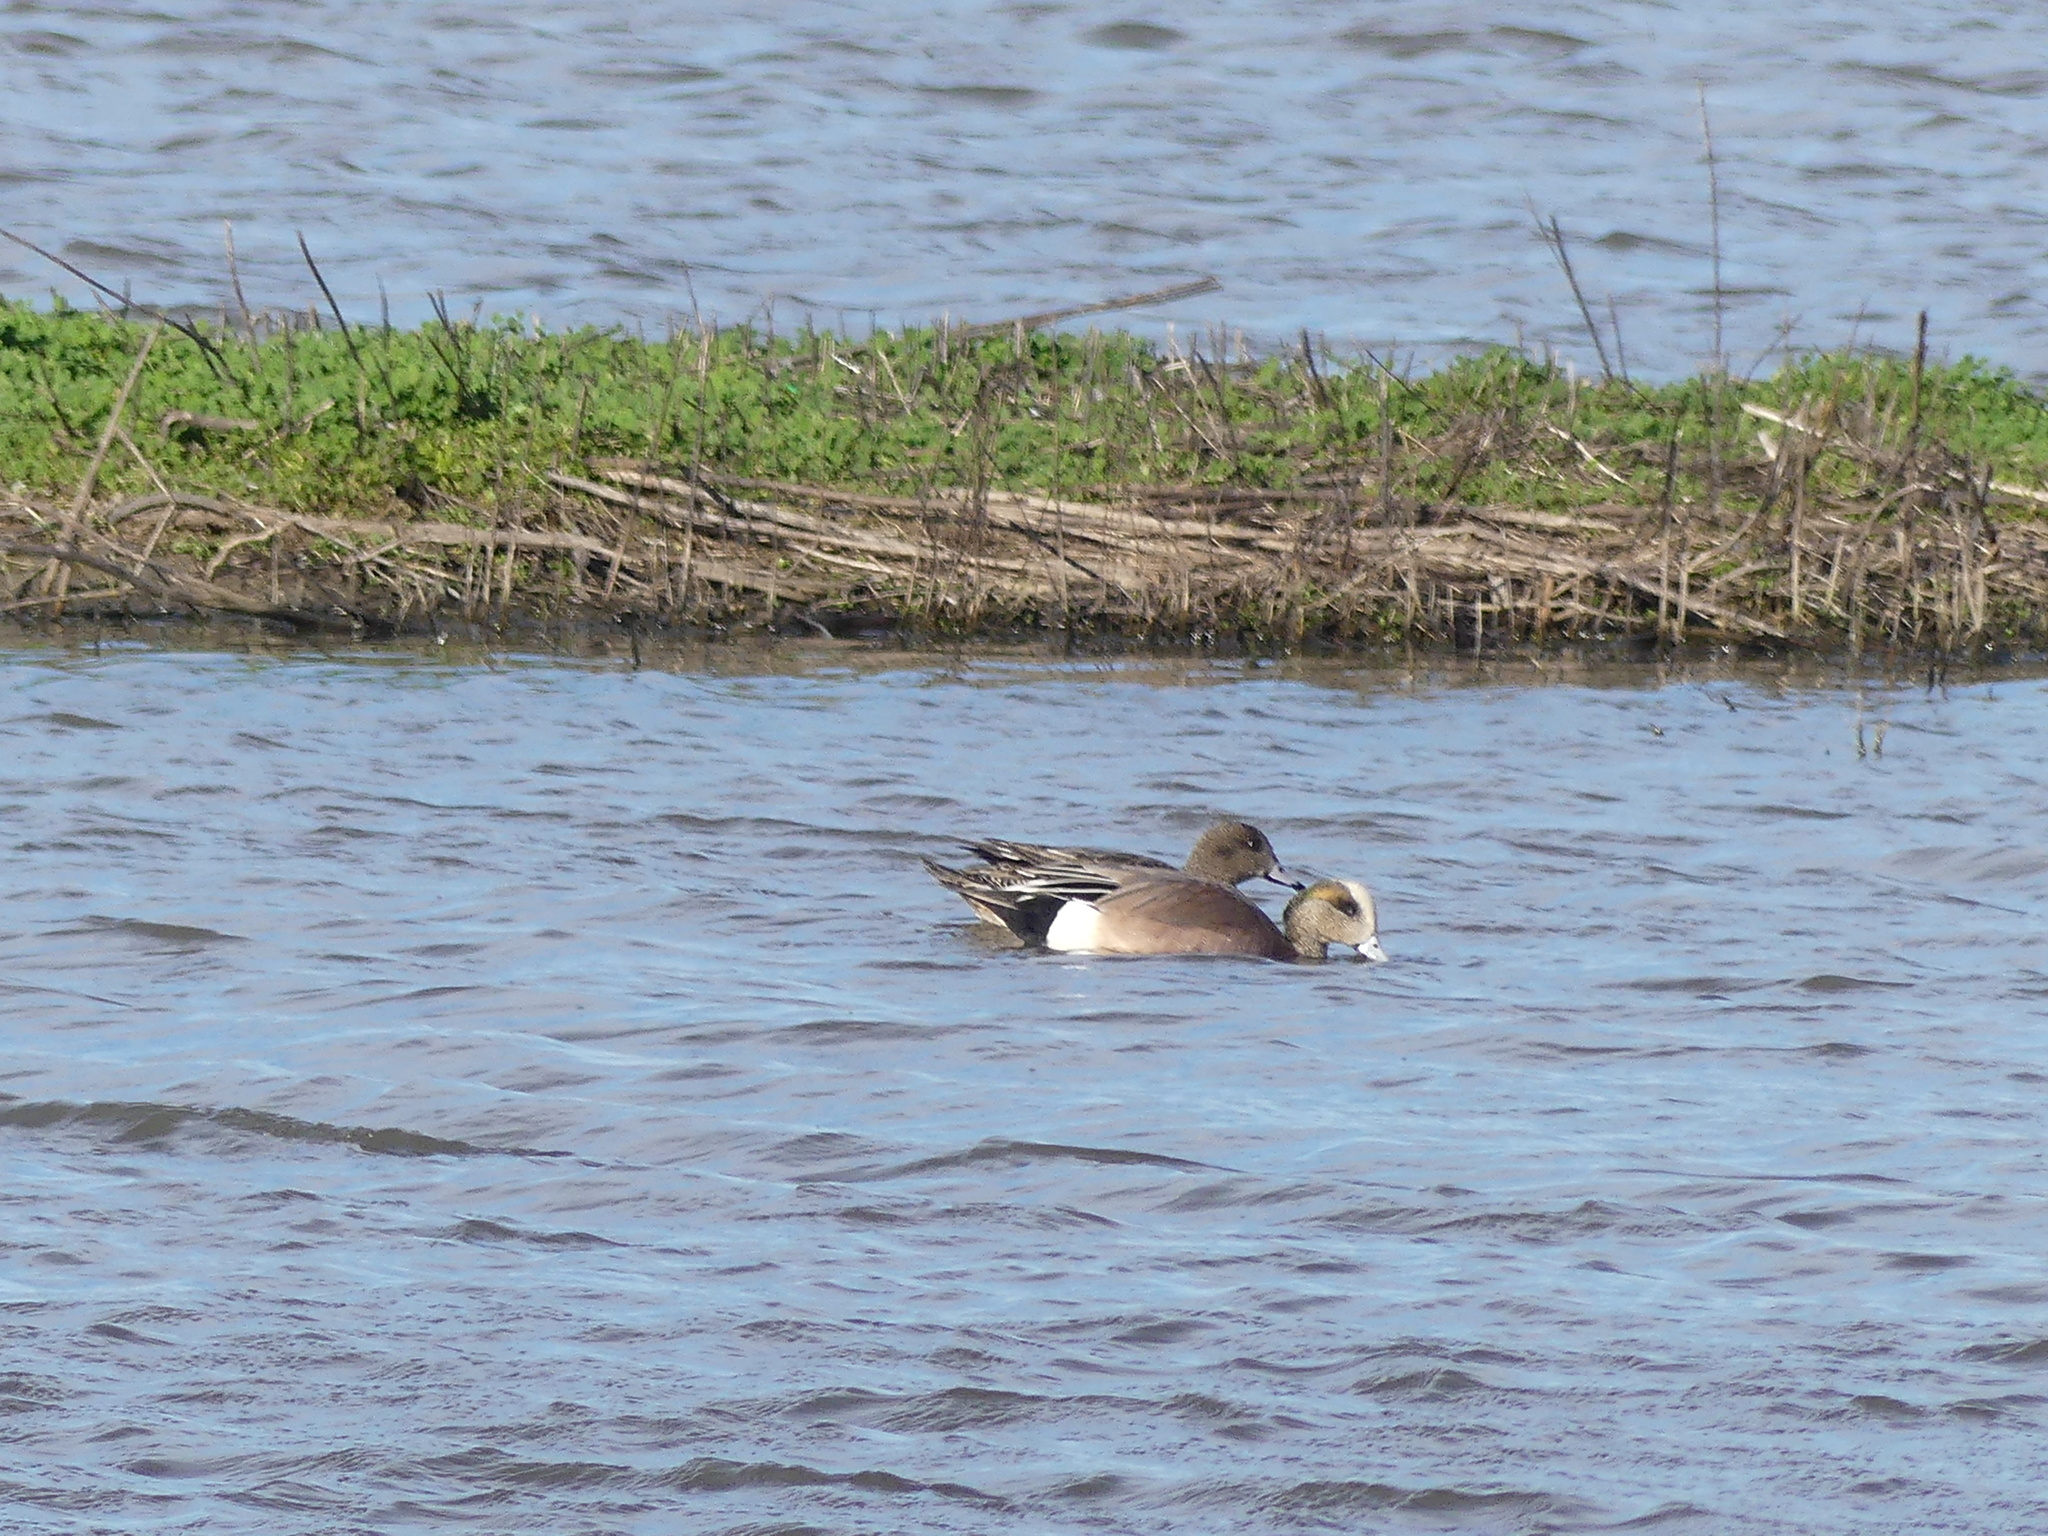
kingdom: Animalia
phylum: Chordata
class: Aves
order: Anseriformes
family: Anatidae
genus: Mareca
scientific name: Mareca americana
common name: American wigeon
